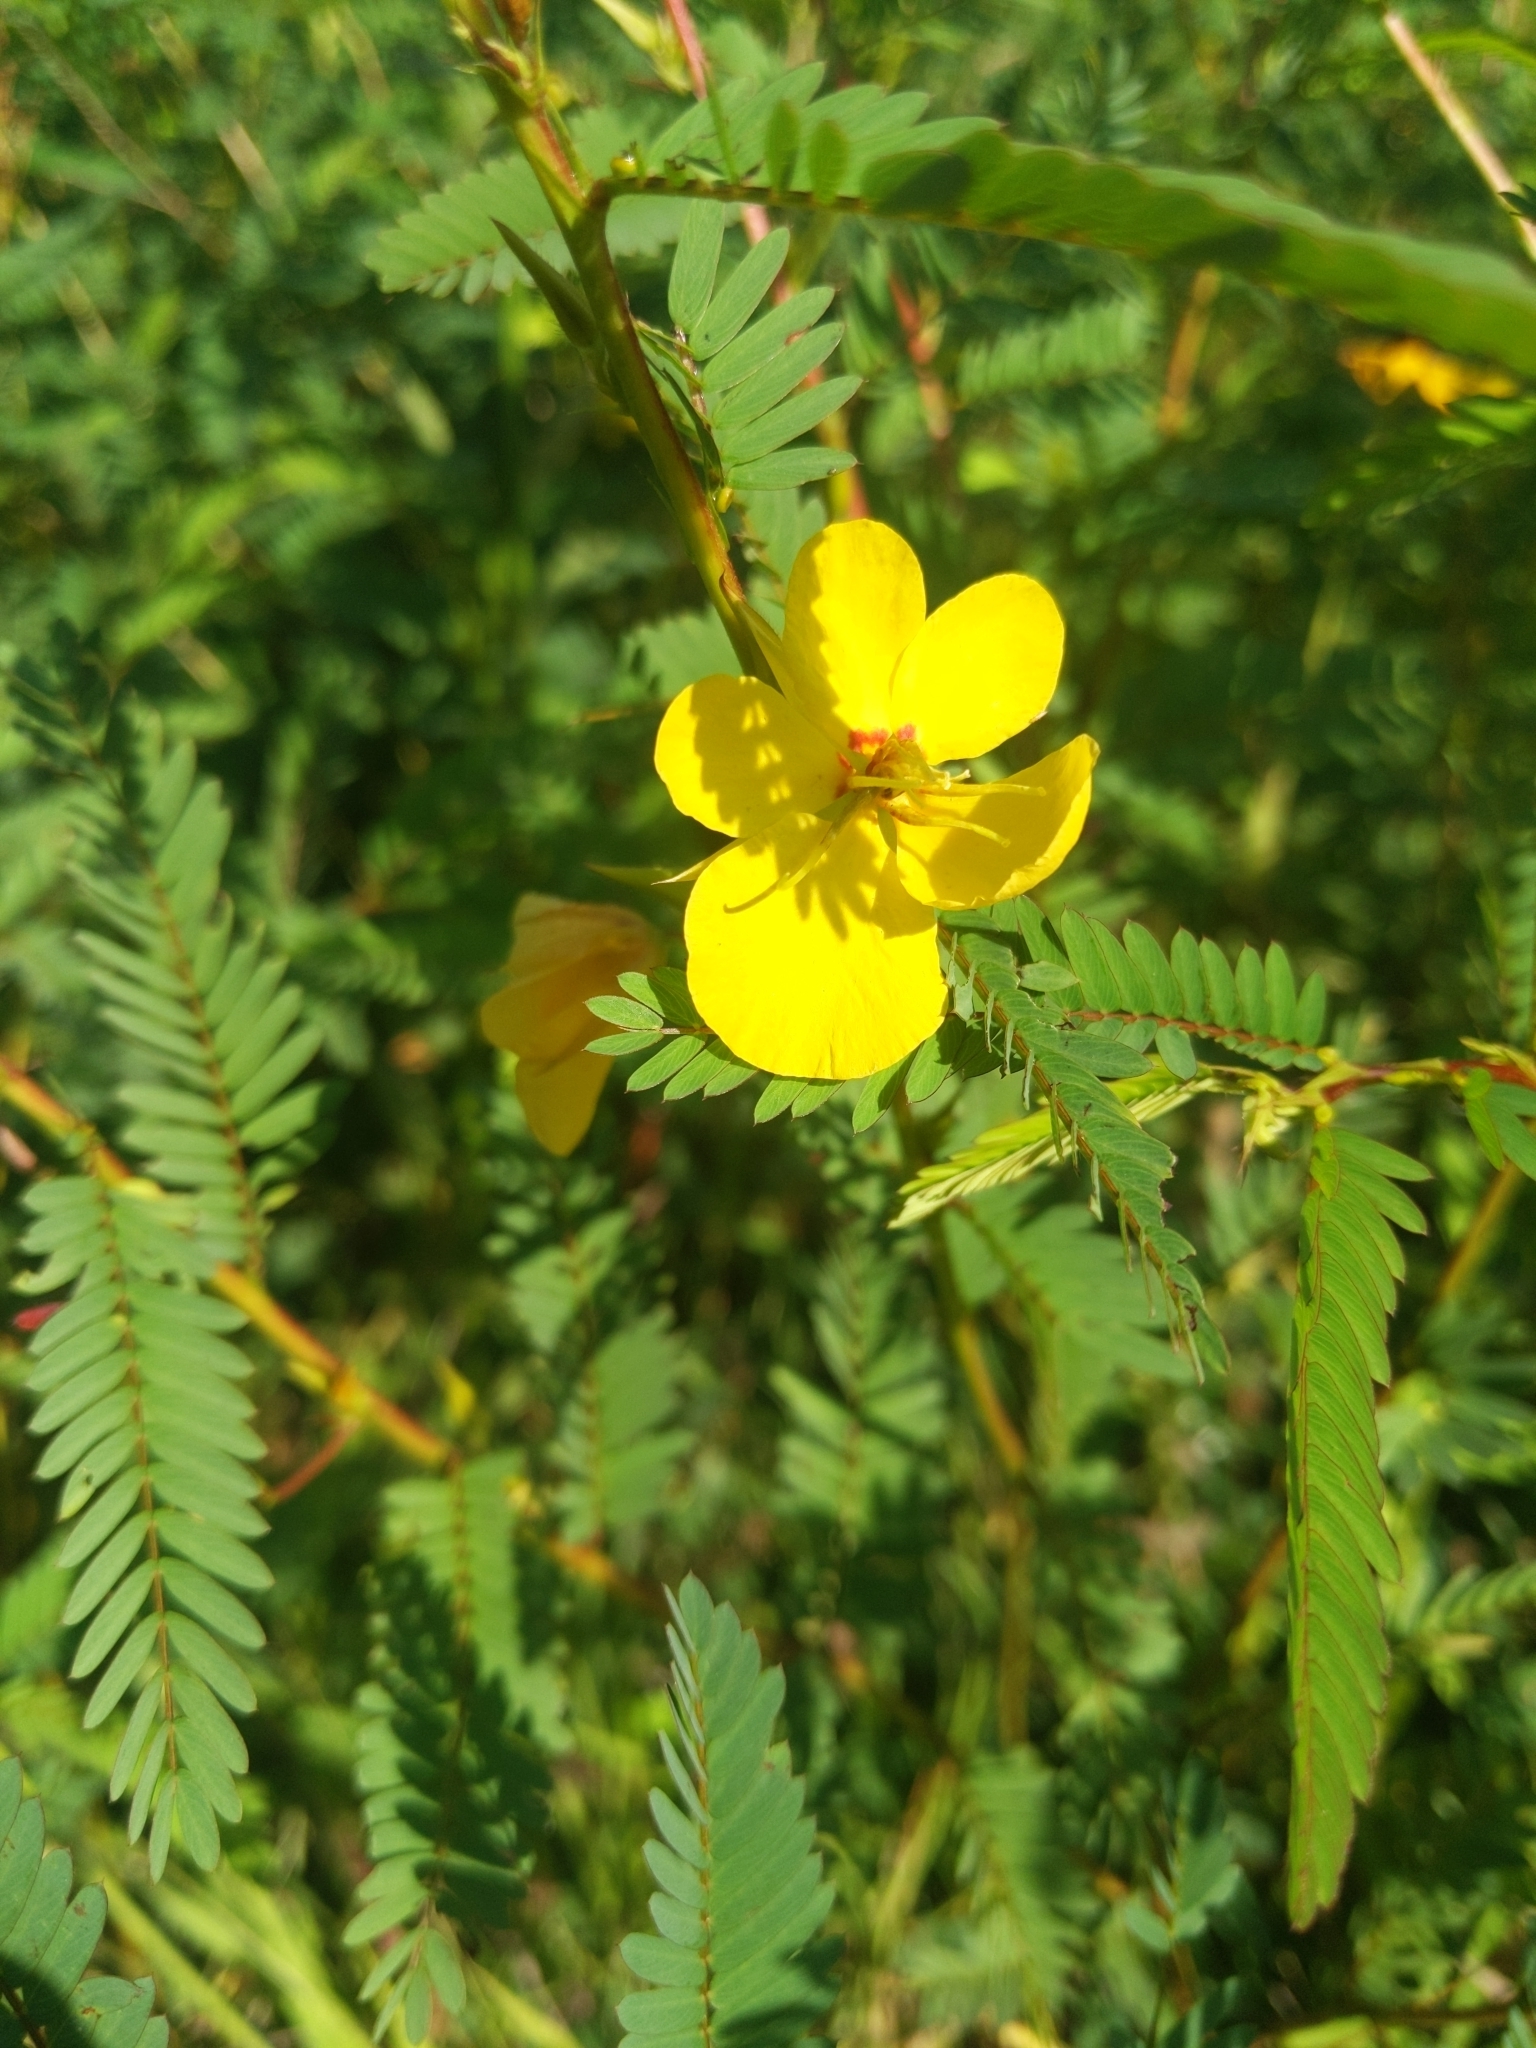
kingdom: Plantae
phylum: Tracheophyta
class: Magnoliopsida
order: Fabales
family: Fabaceae
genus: Chamaecrista
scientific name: Chamaecrista fasciculata
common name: Golden cassia
